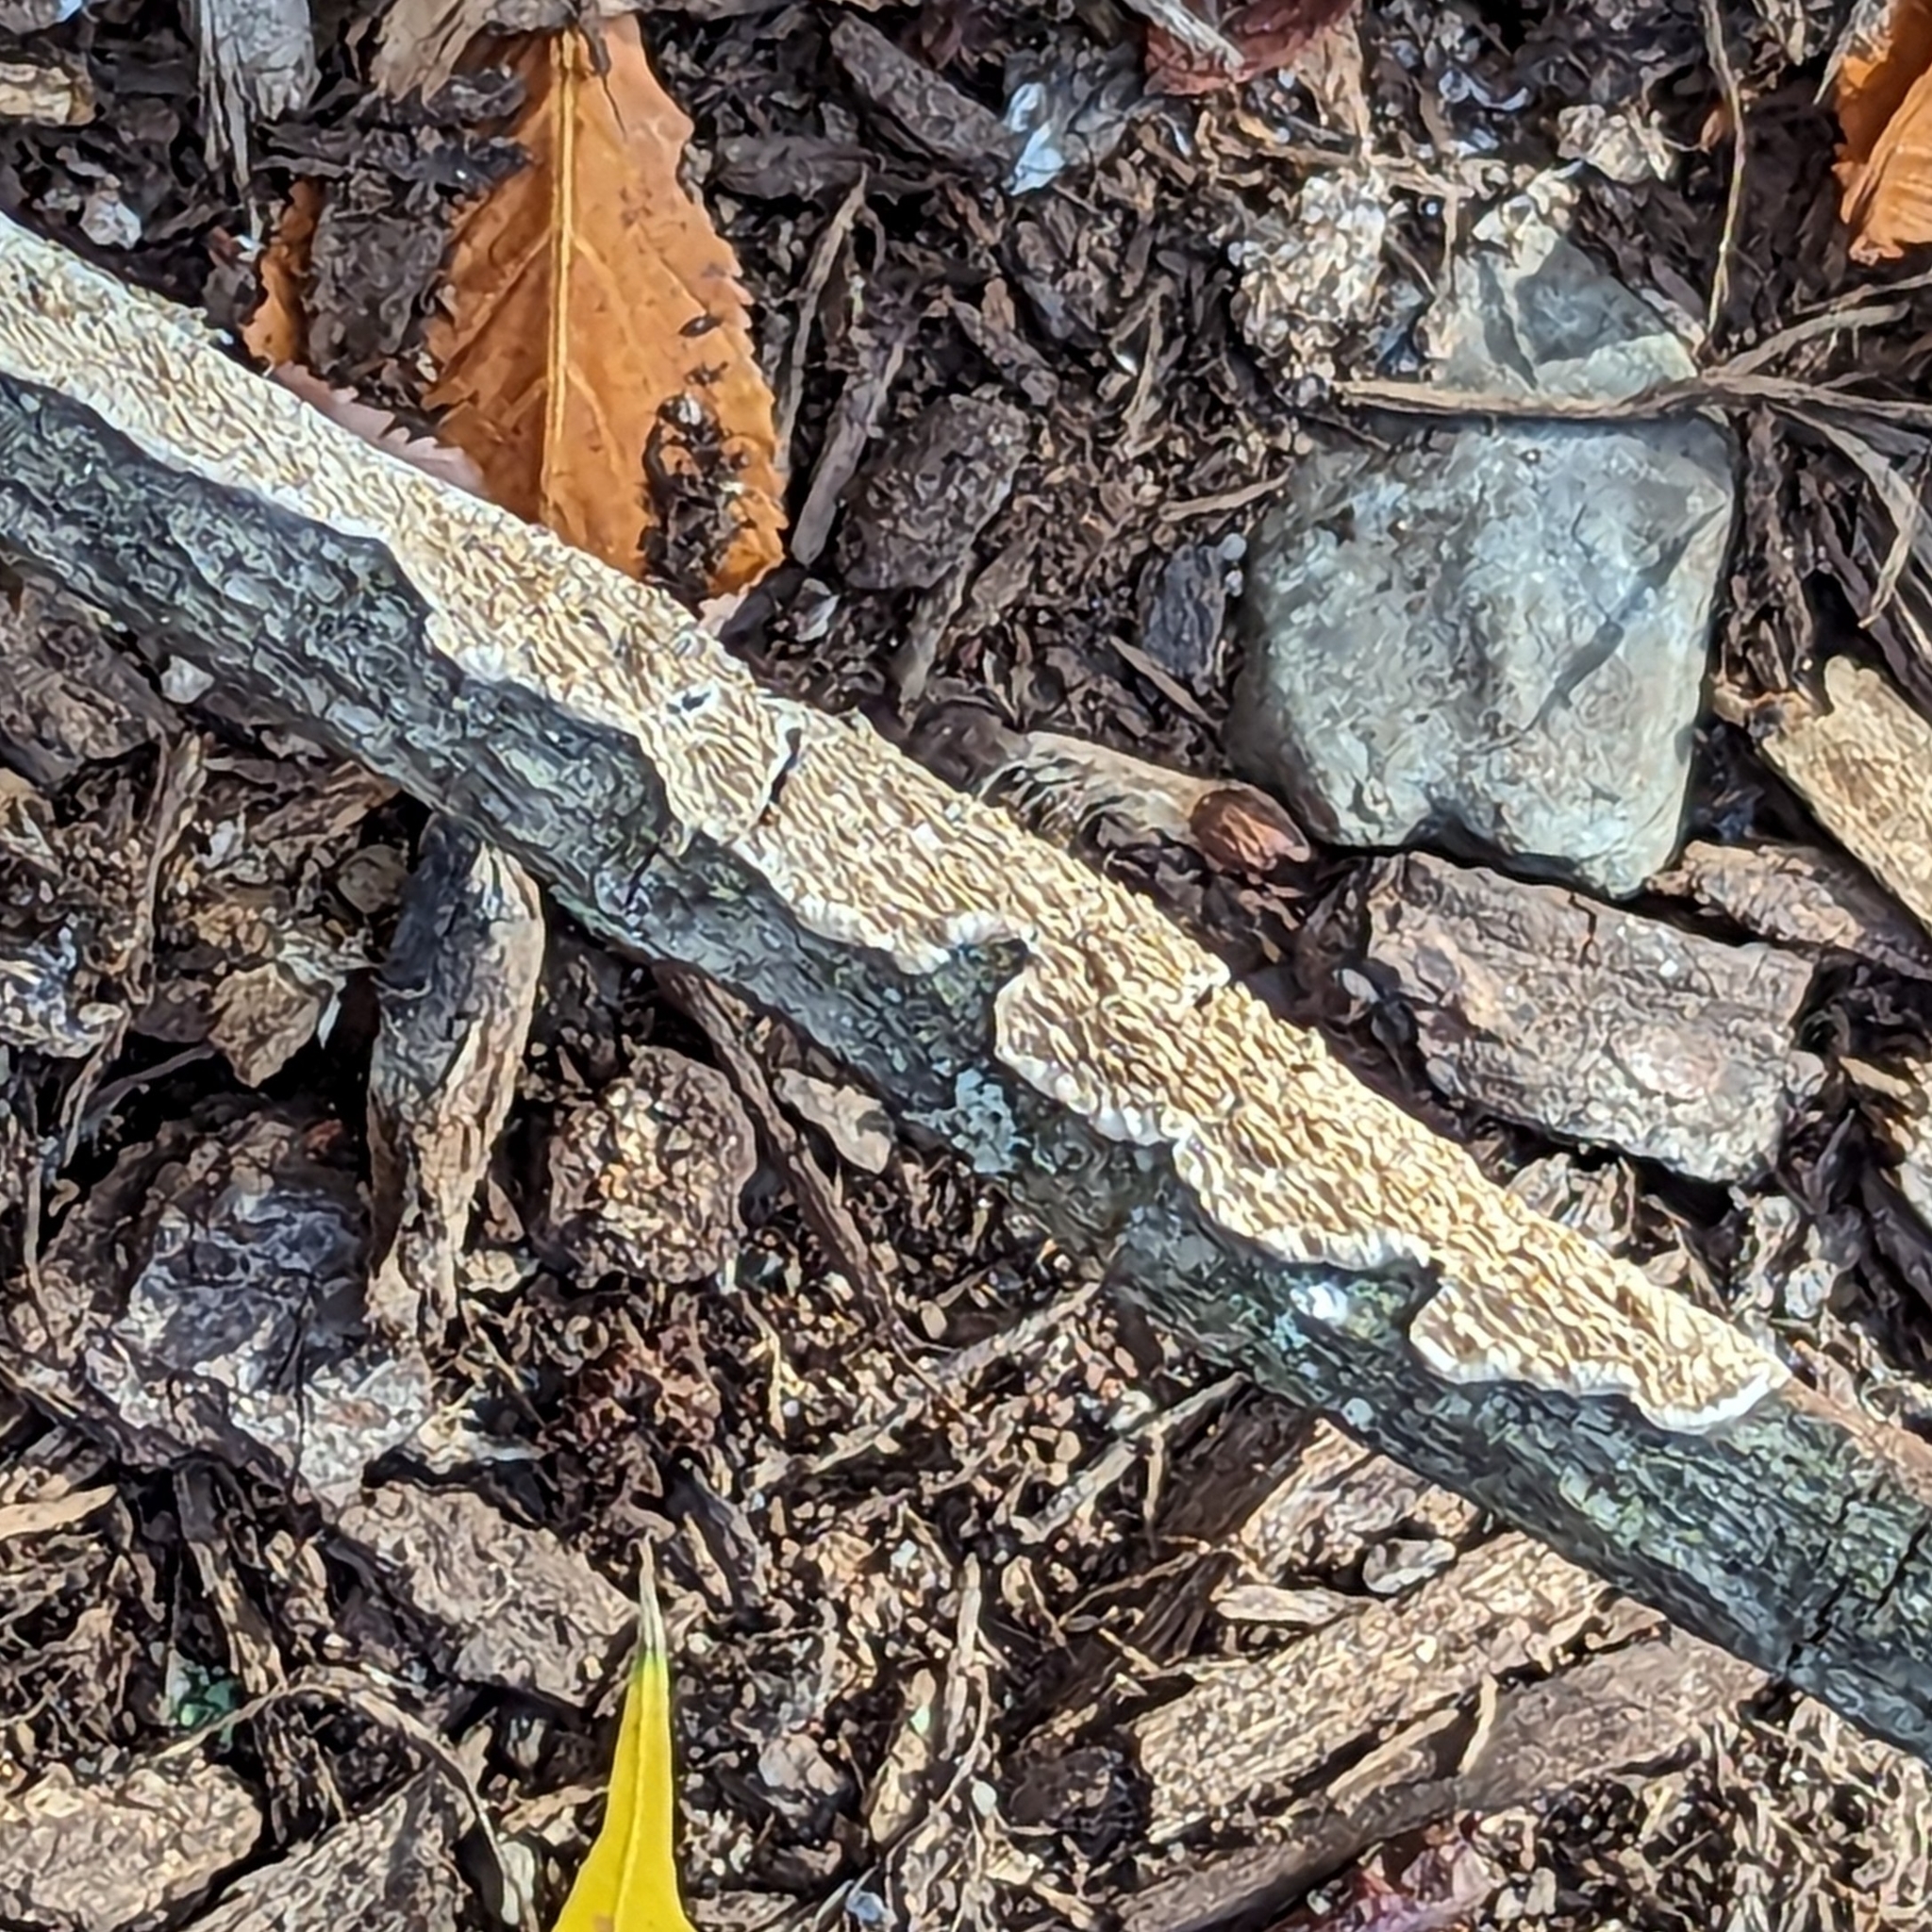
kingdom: Fungi
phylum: Basidiomycota
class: Agaricomycetes
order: Polyporales
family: Irpicaceae
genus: Irpex
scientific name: Irpex lacteus
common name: Milk-white toothed polypore
